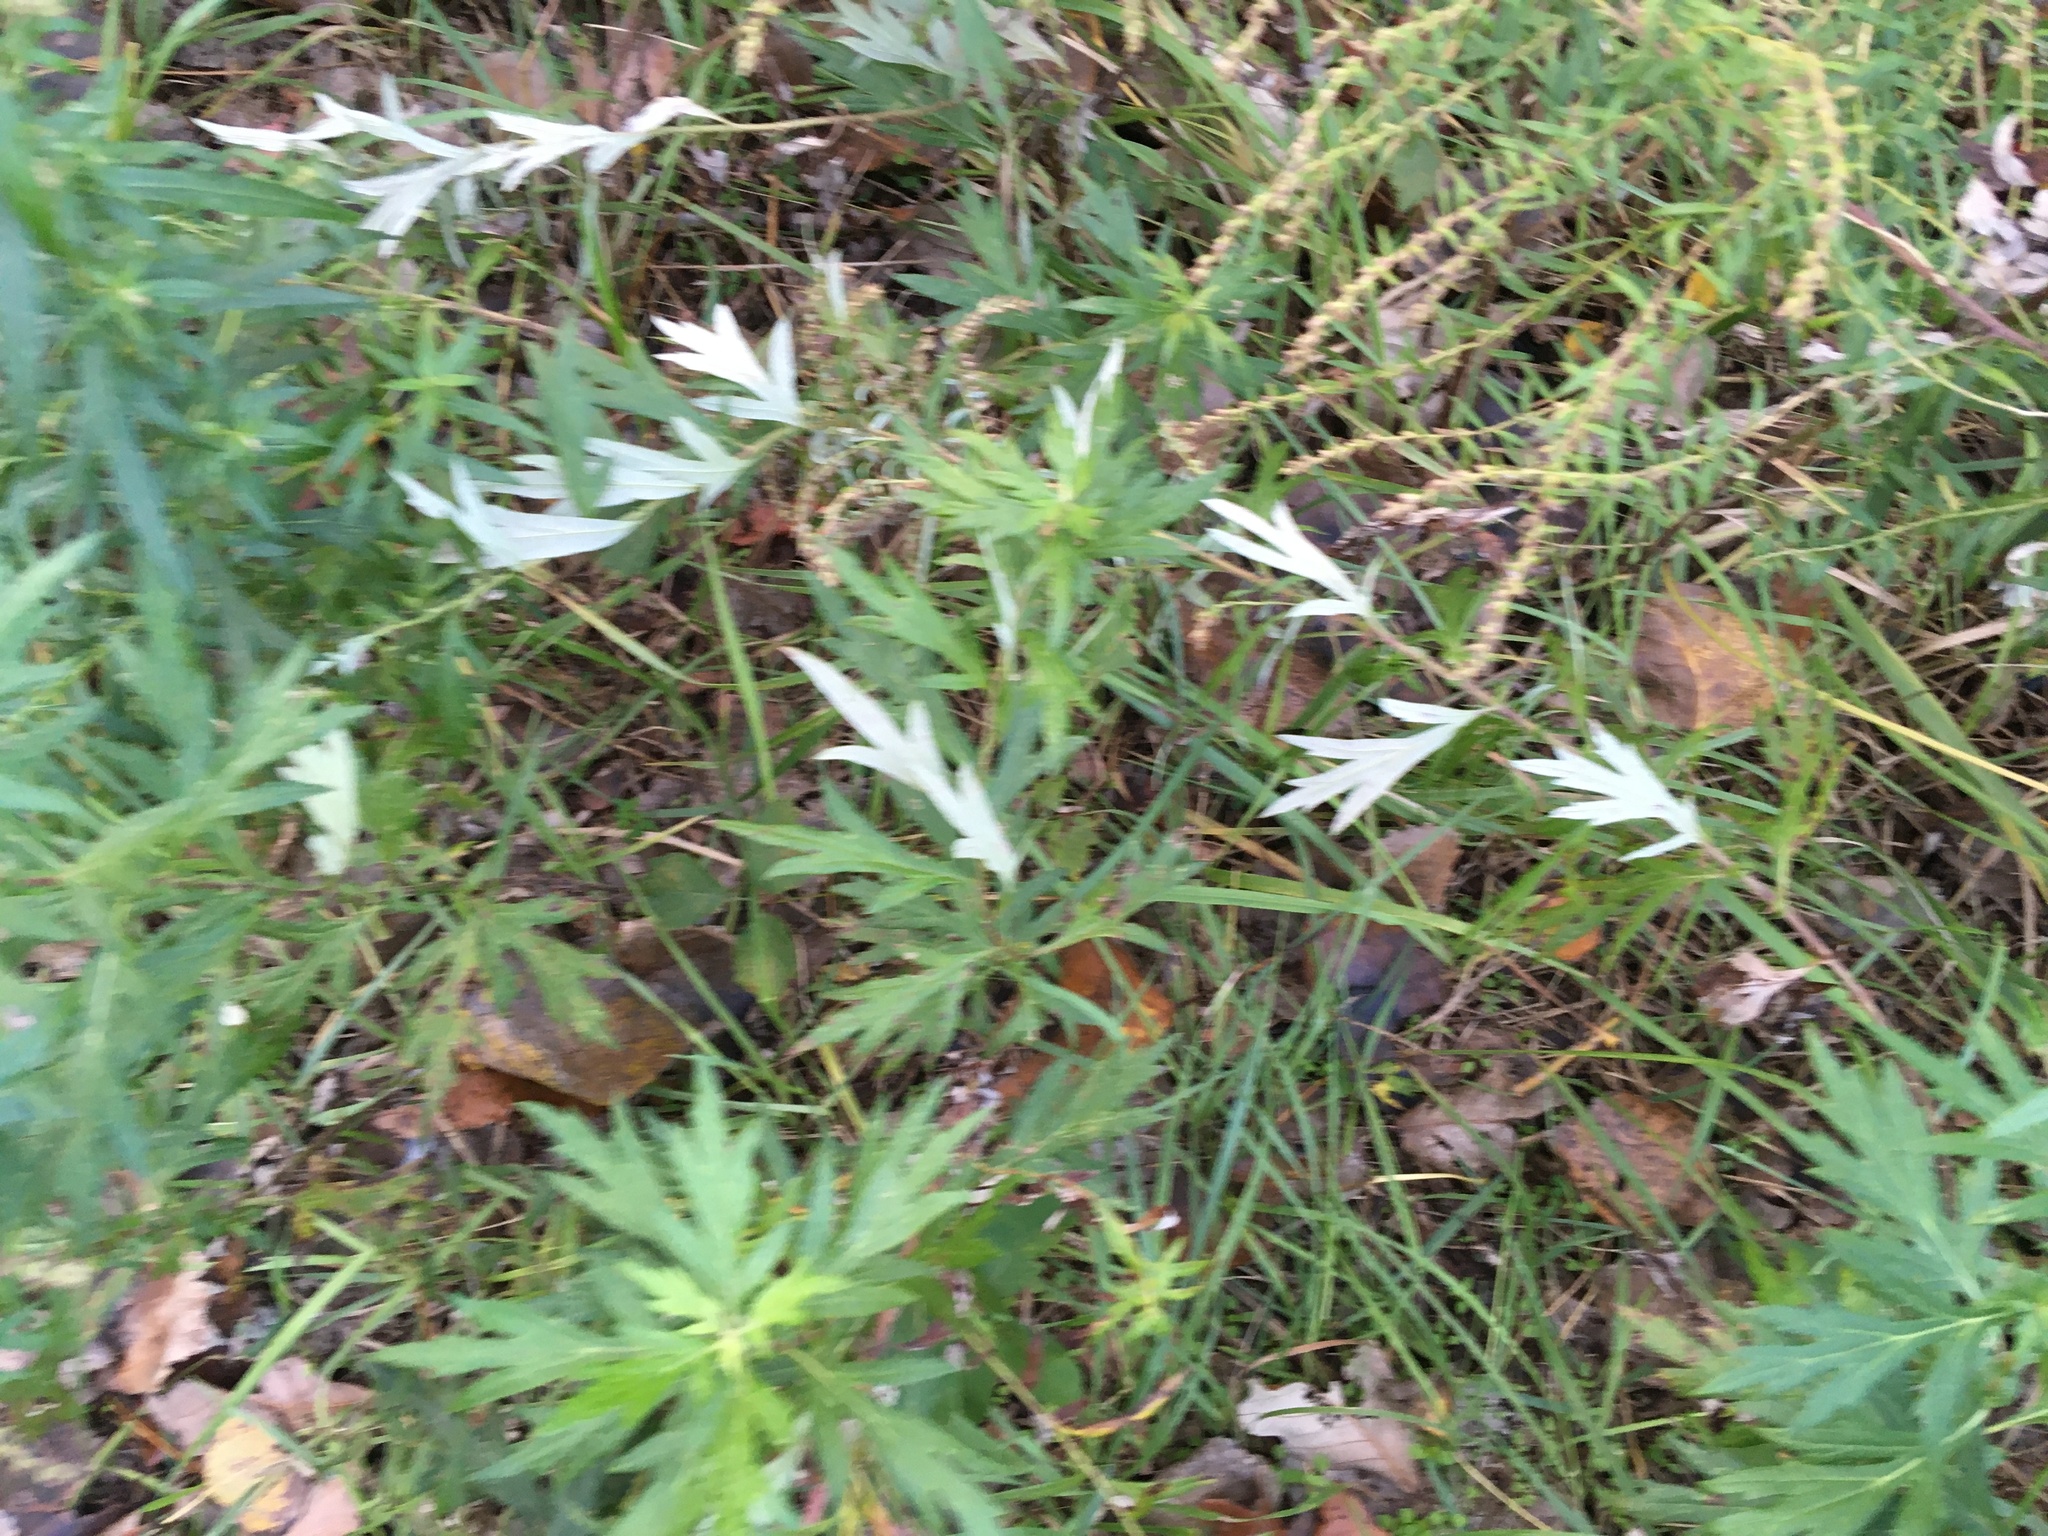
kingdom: Plantae
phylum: Tracheophyta
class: Magnoliopsida
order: Asterales
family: Asteraceae
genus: Artemisia
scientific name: Artemisia vulgaris
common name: Mugwort
